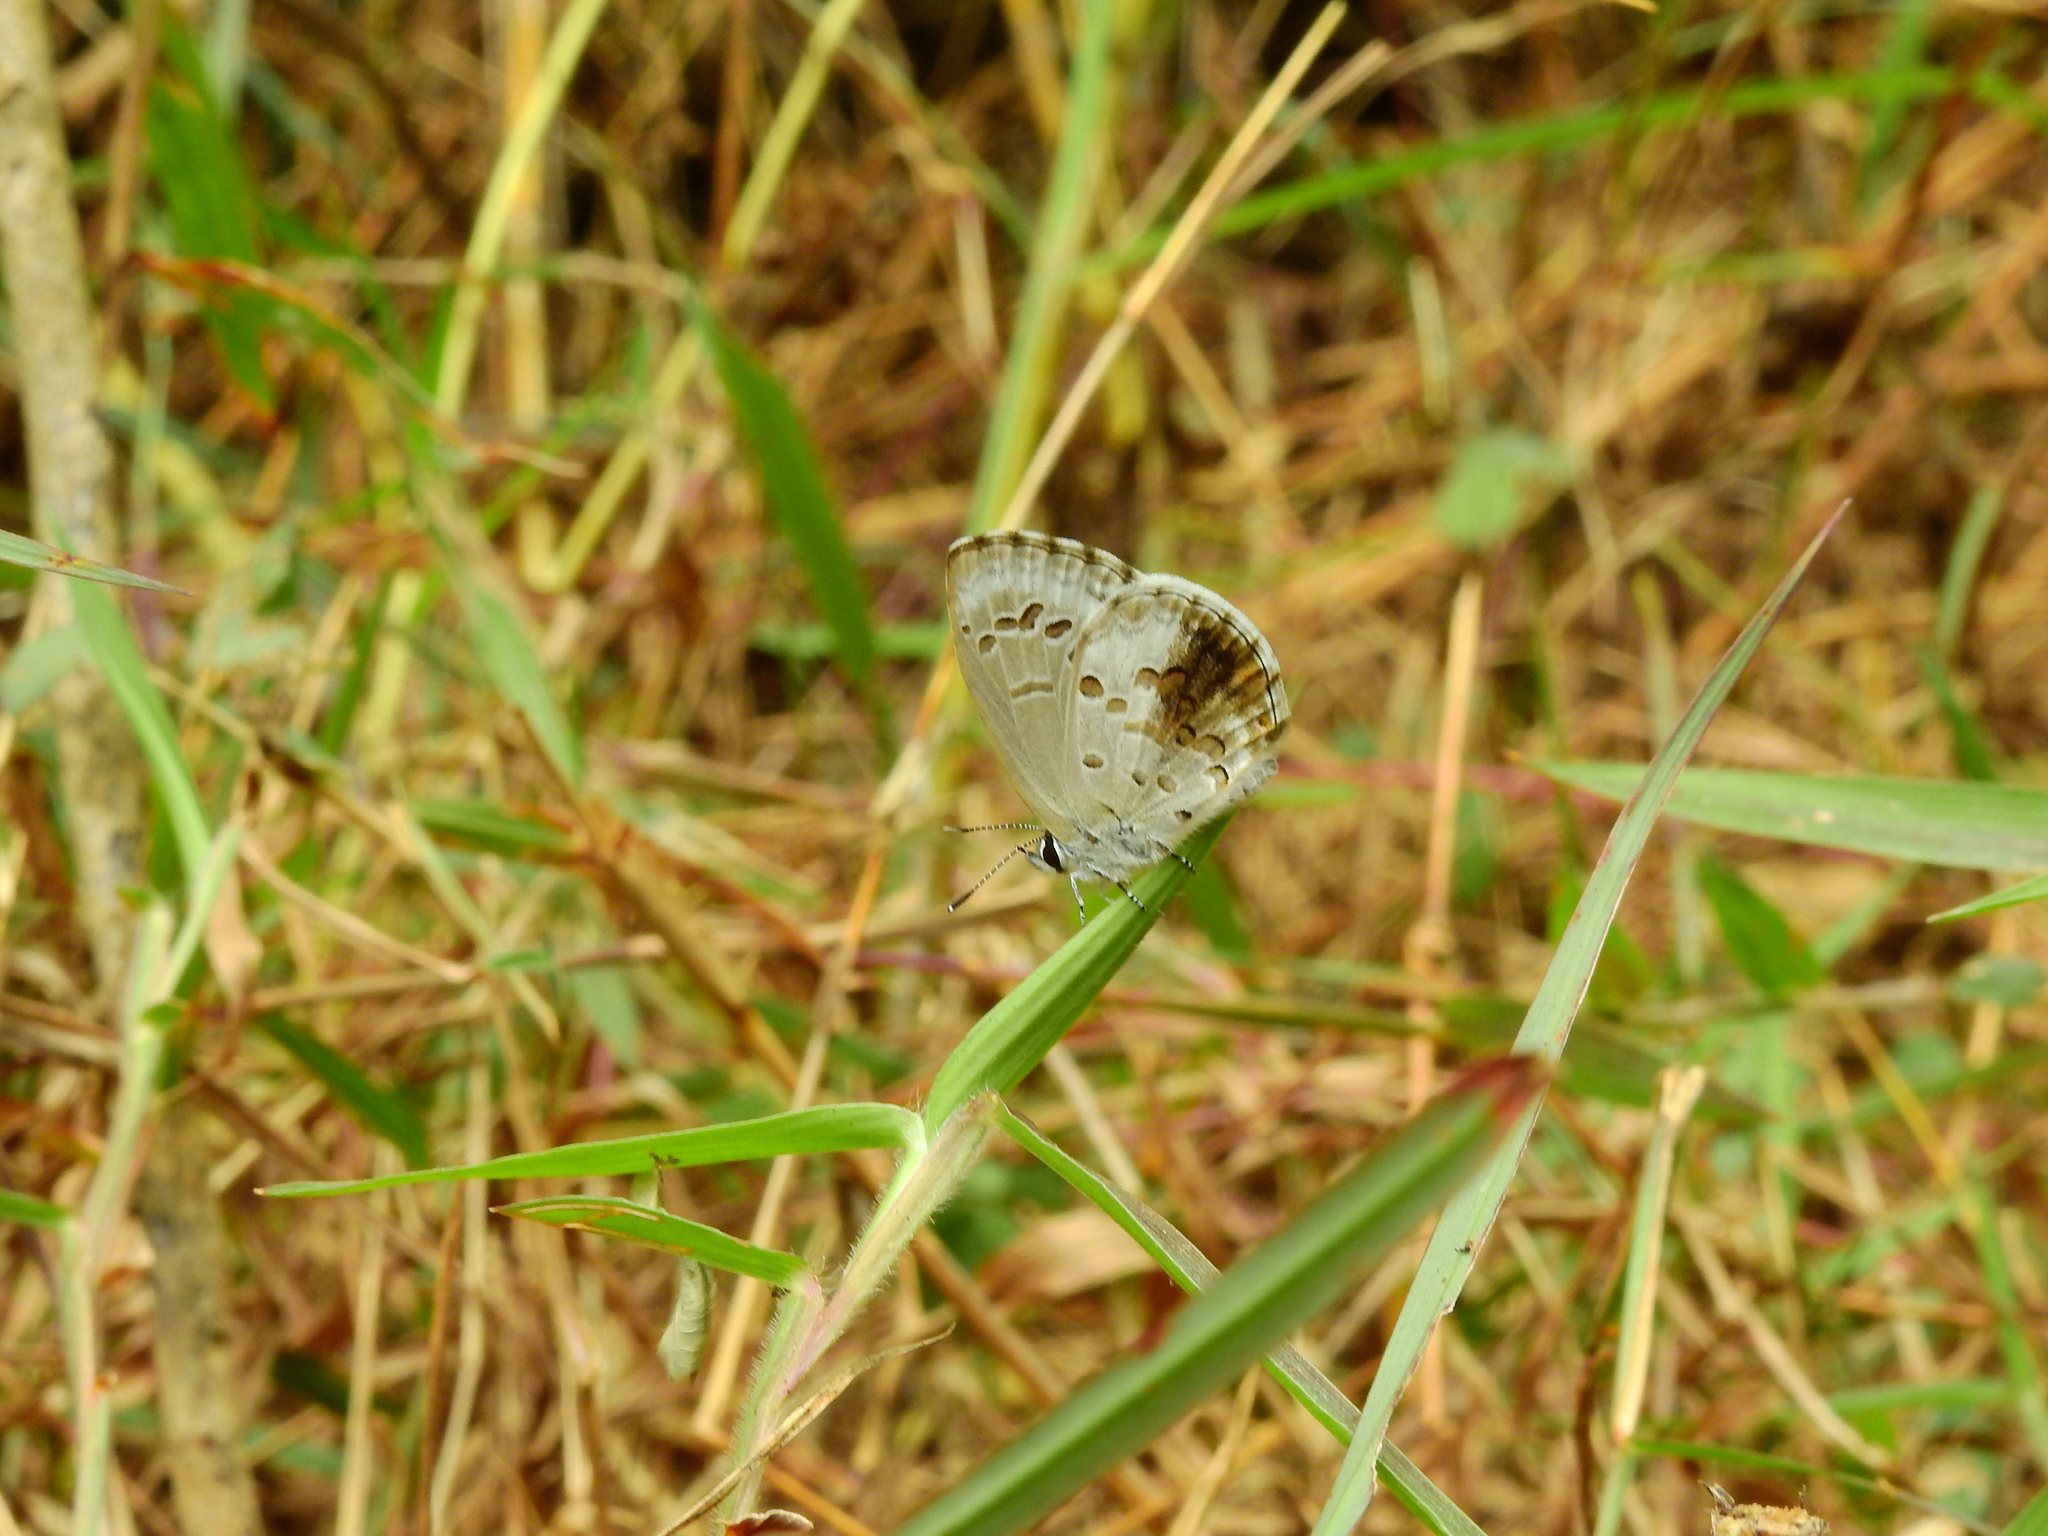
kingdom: Animalia
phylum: Arthropoda
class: Insecta
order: Lepidoptera
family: Lycaenidae
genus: Chilades
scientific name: Chilades laius
